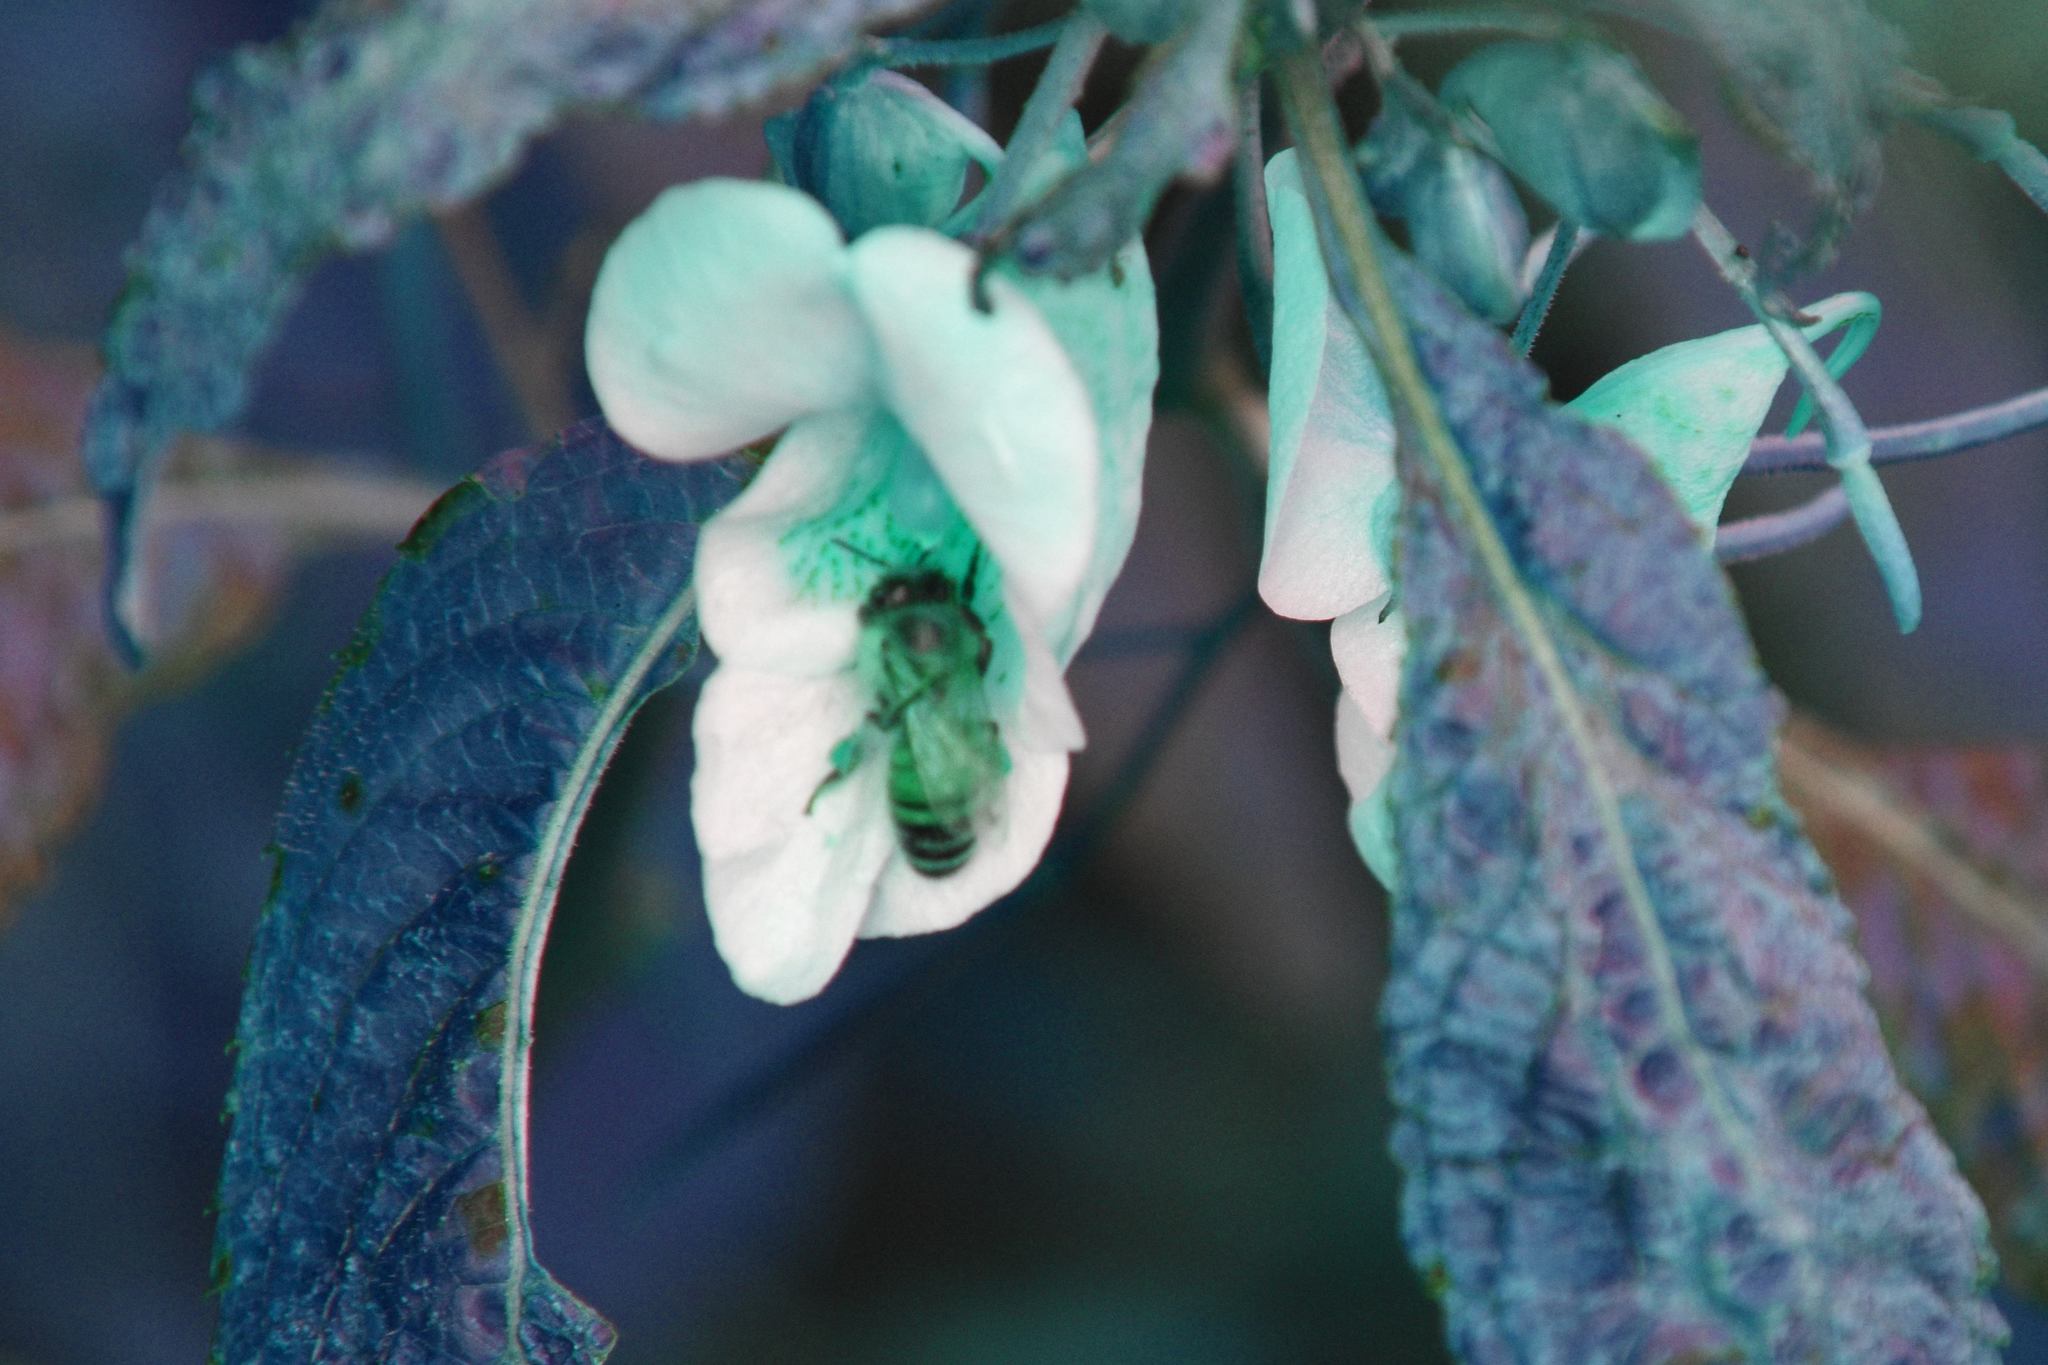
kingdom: Animalia
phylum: Arthropoda
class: Insecta
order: Hymenoptera
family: Apidae
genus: Apis
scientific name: Apis mellifera
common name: Honey bee
